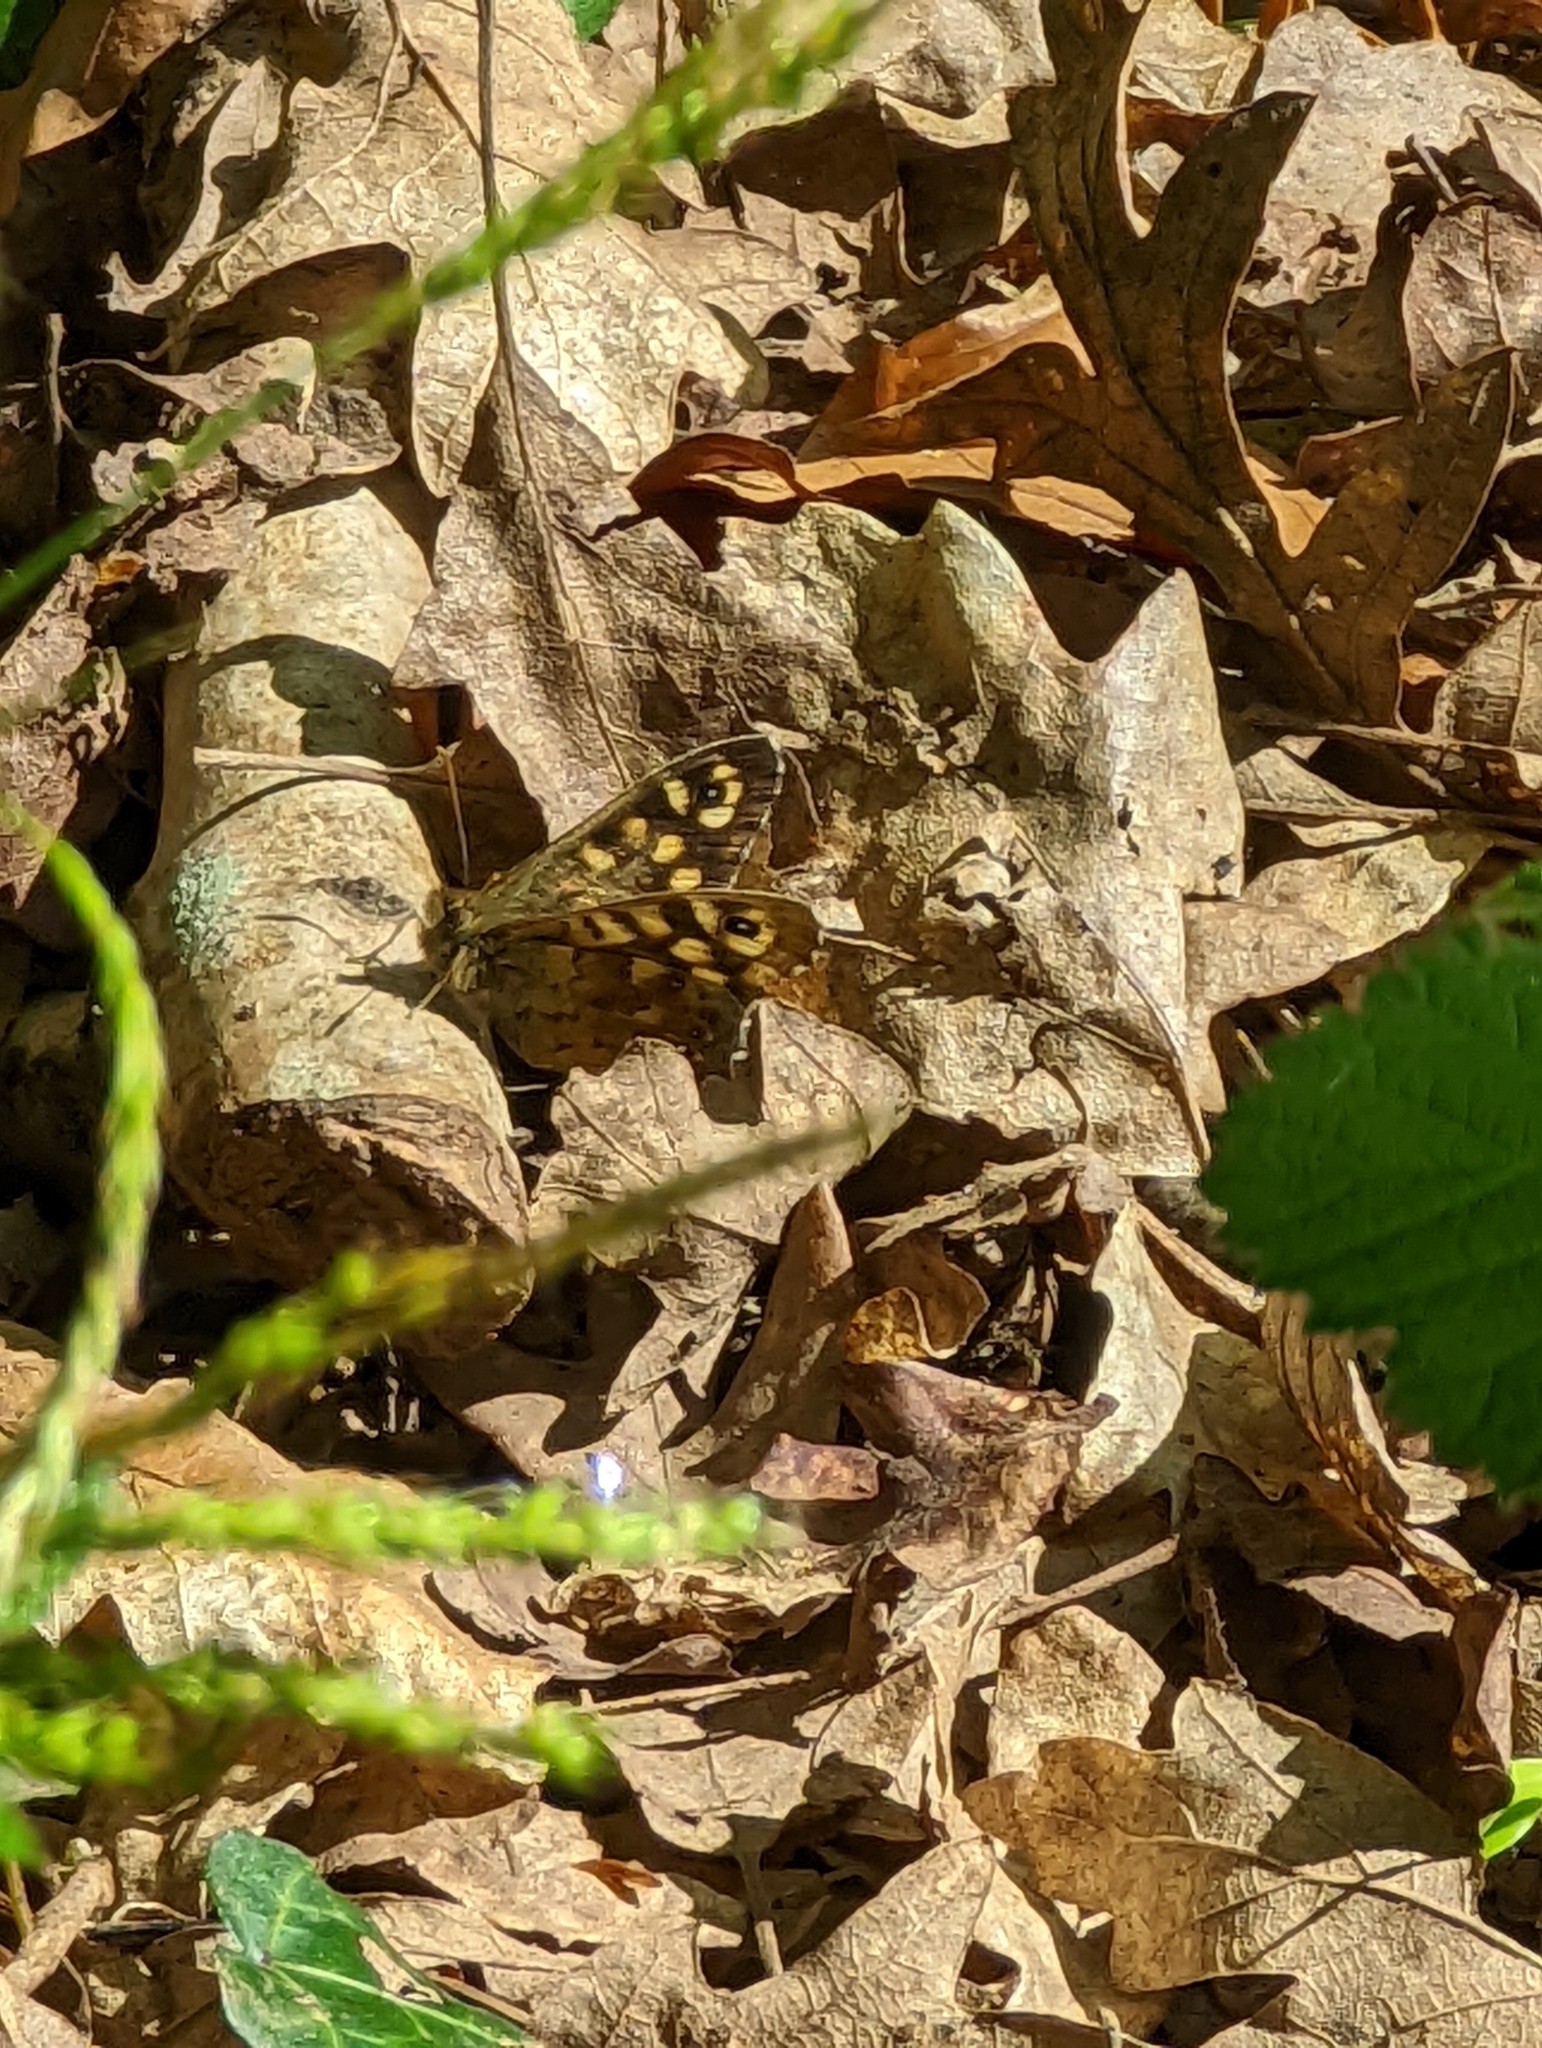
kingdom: Animalia
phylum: Arthropoda
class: Insecta
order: Lepidoptera
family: Nymphalidae
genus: Pararge
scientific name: Pararge aegeria
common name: Speckled wood
